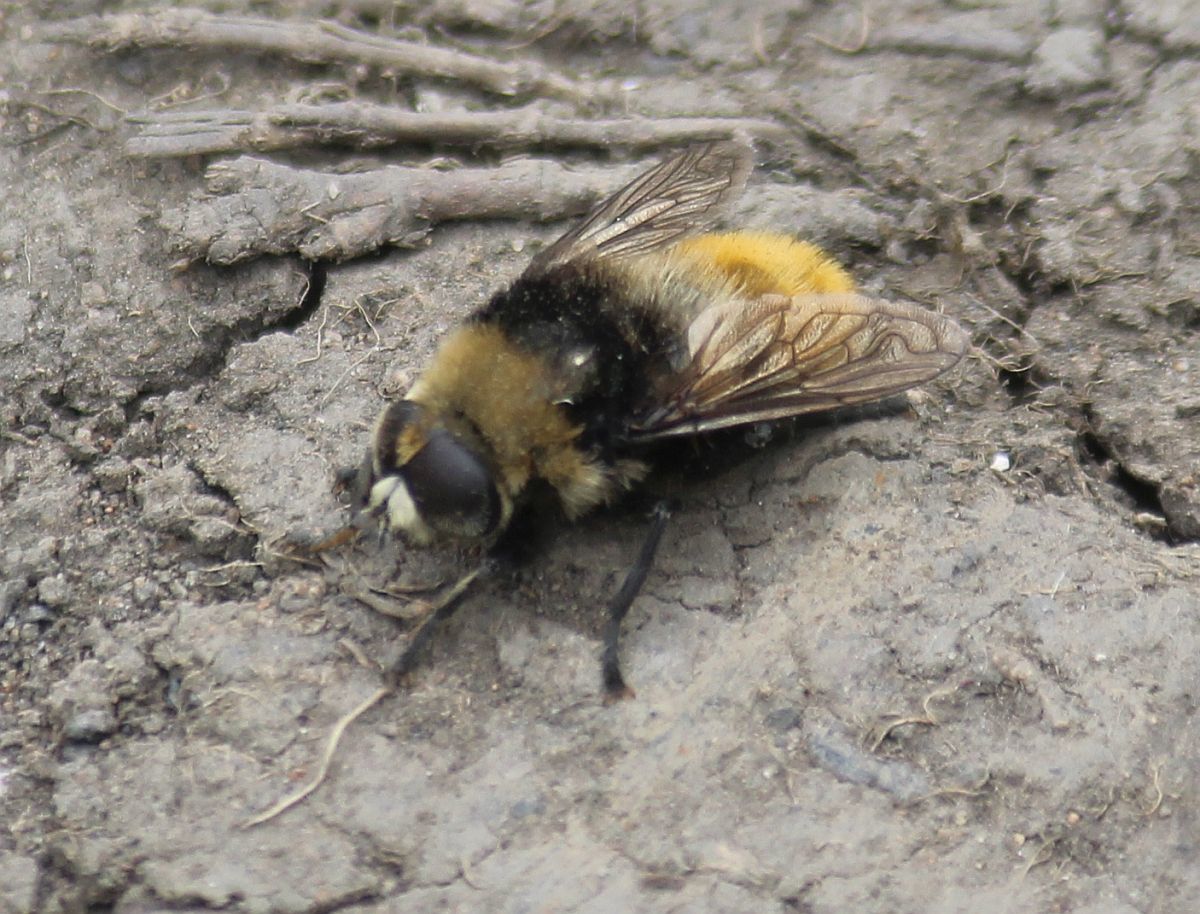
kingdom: Animalia
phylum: Arthropoda
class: Insecta
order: Diptera
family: Syrphidae
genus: Merodon
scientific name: Merodon equestris
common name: Greater bulb-fly
